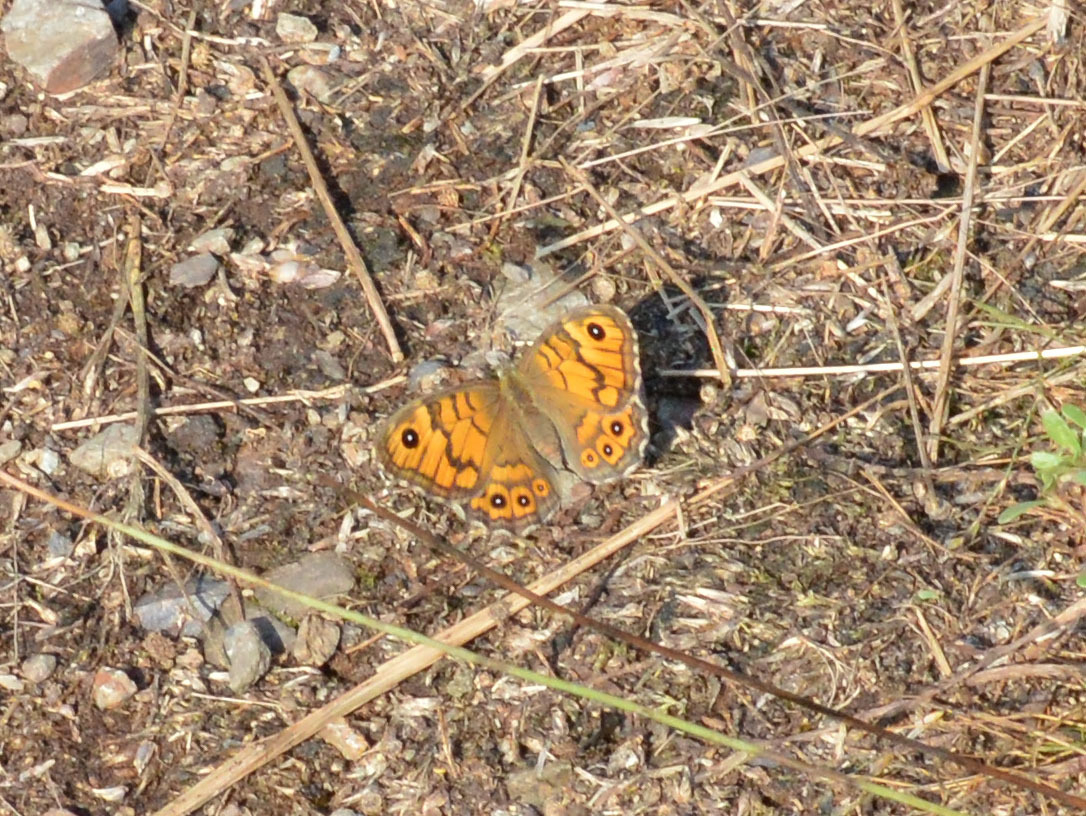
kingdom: Animalia
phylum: Arthropoda
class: Insecta
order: Lepidoptera
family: Nymphalidae
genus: Pararge
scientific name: Pararge Lasiommata megera
